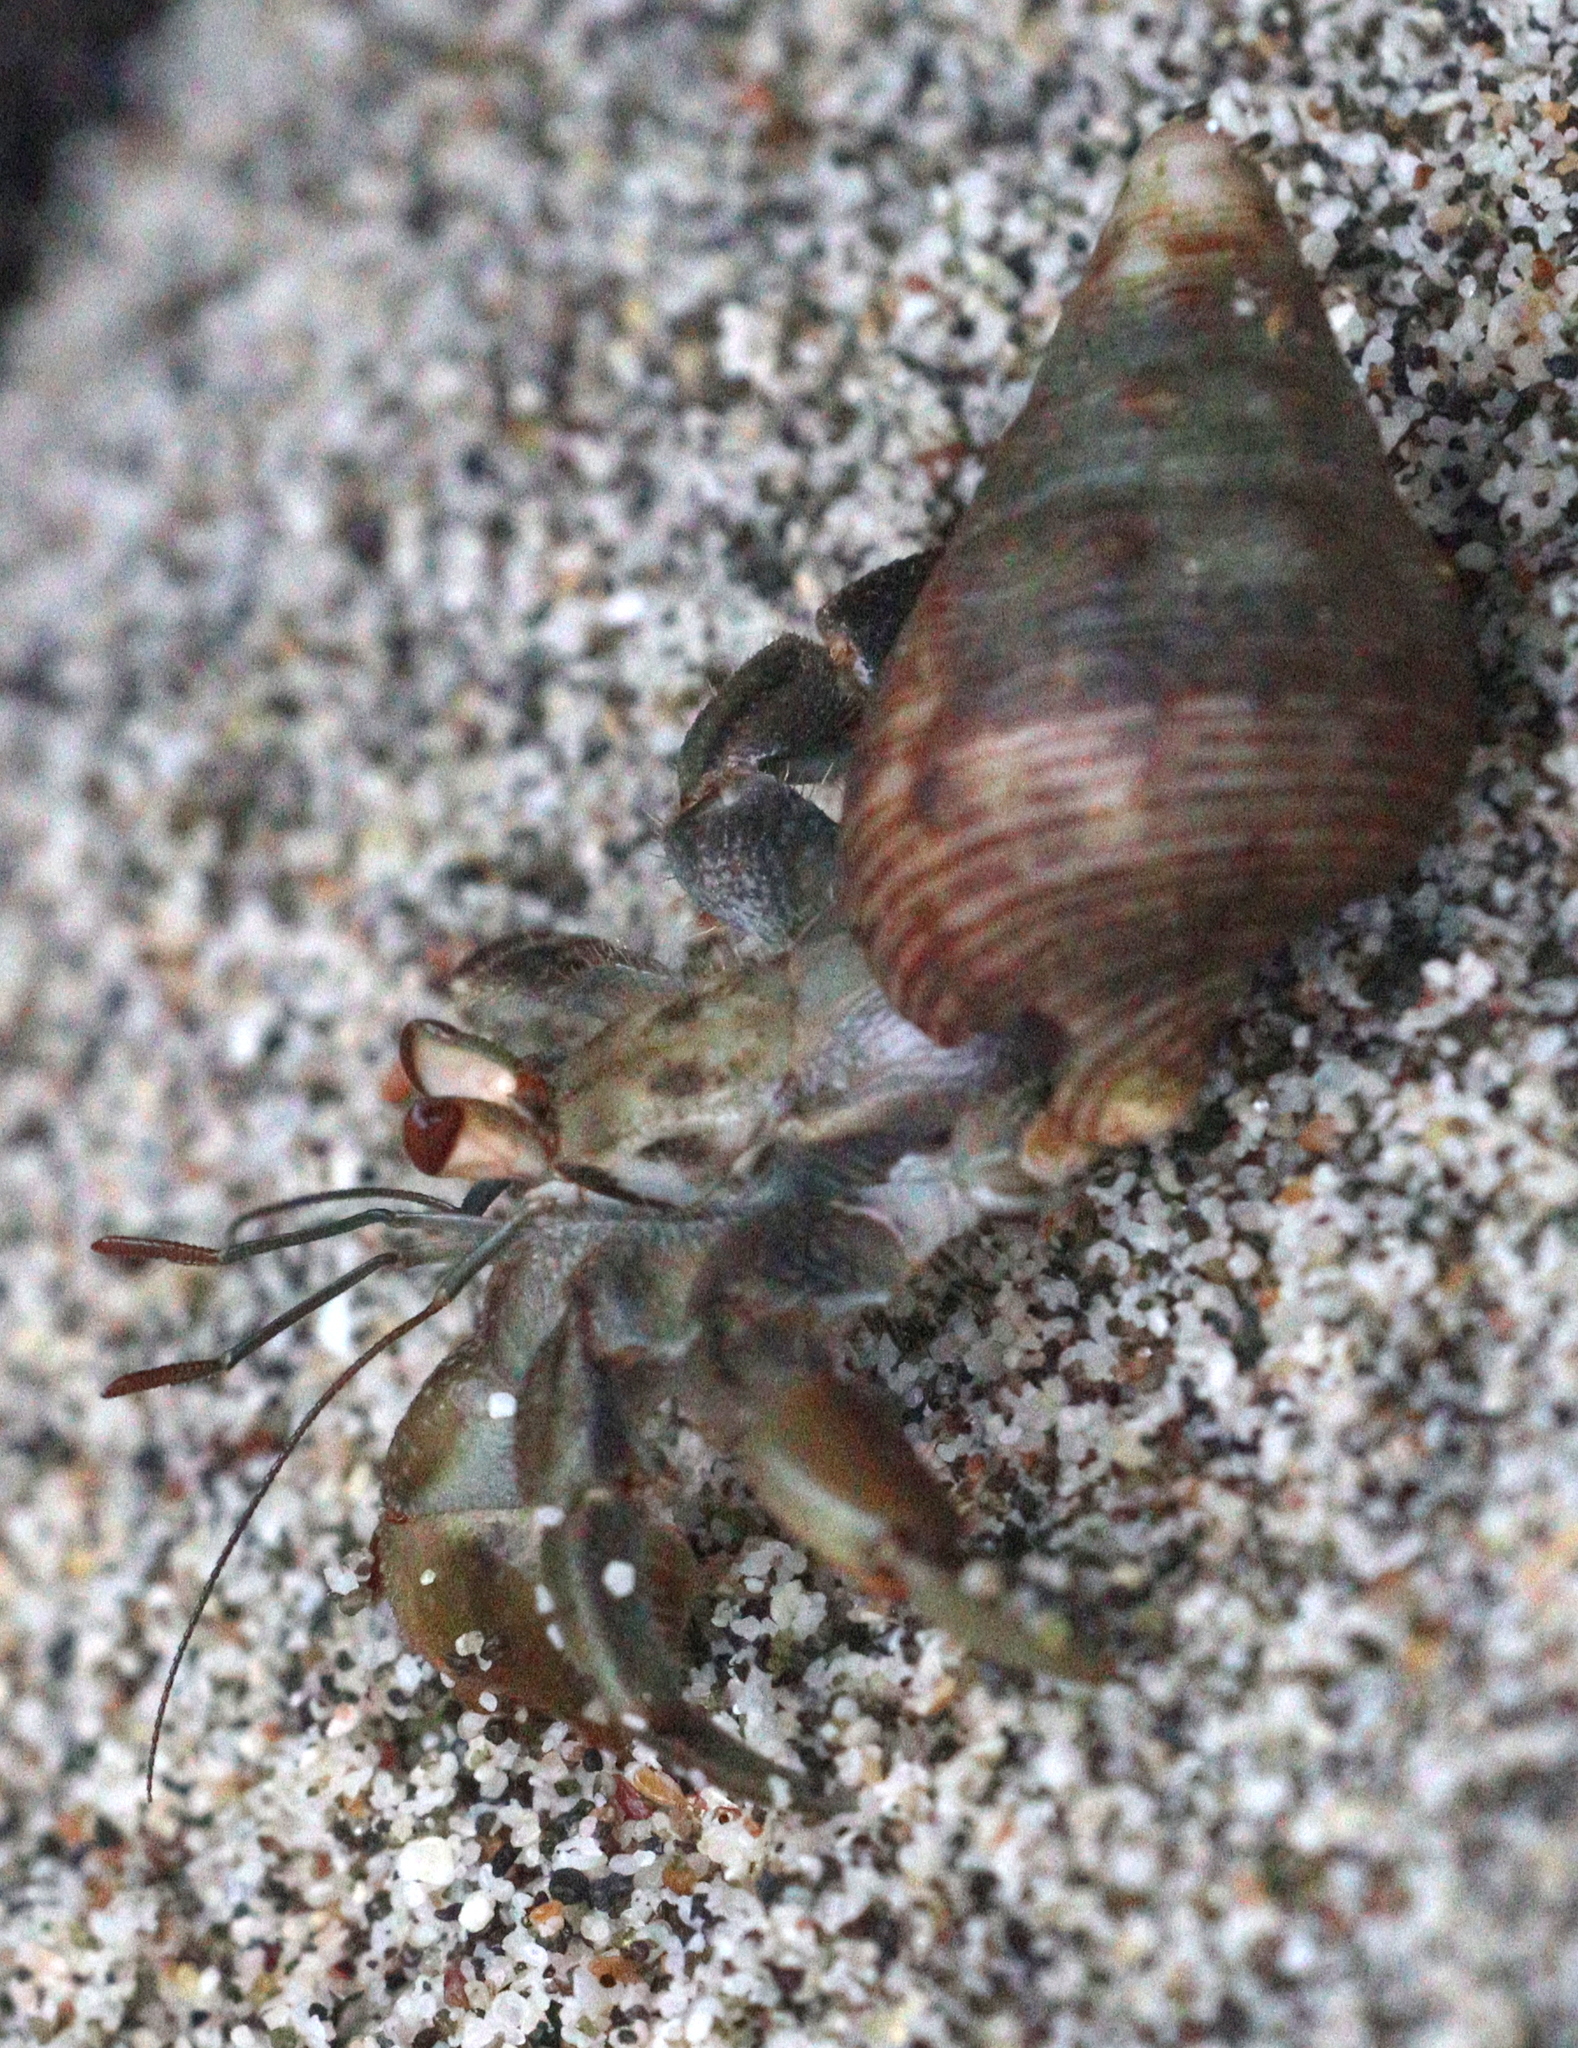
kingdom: Animalia
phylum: Arthropoda
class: Malacostraca
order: Decapoda
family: Coenobitidae
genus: Coenobita
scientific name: Coenobita compressus
